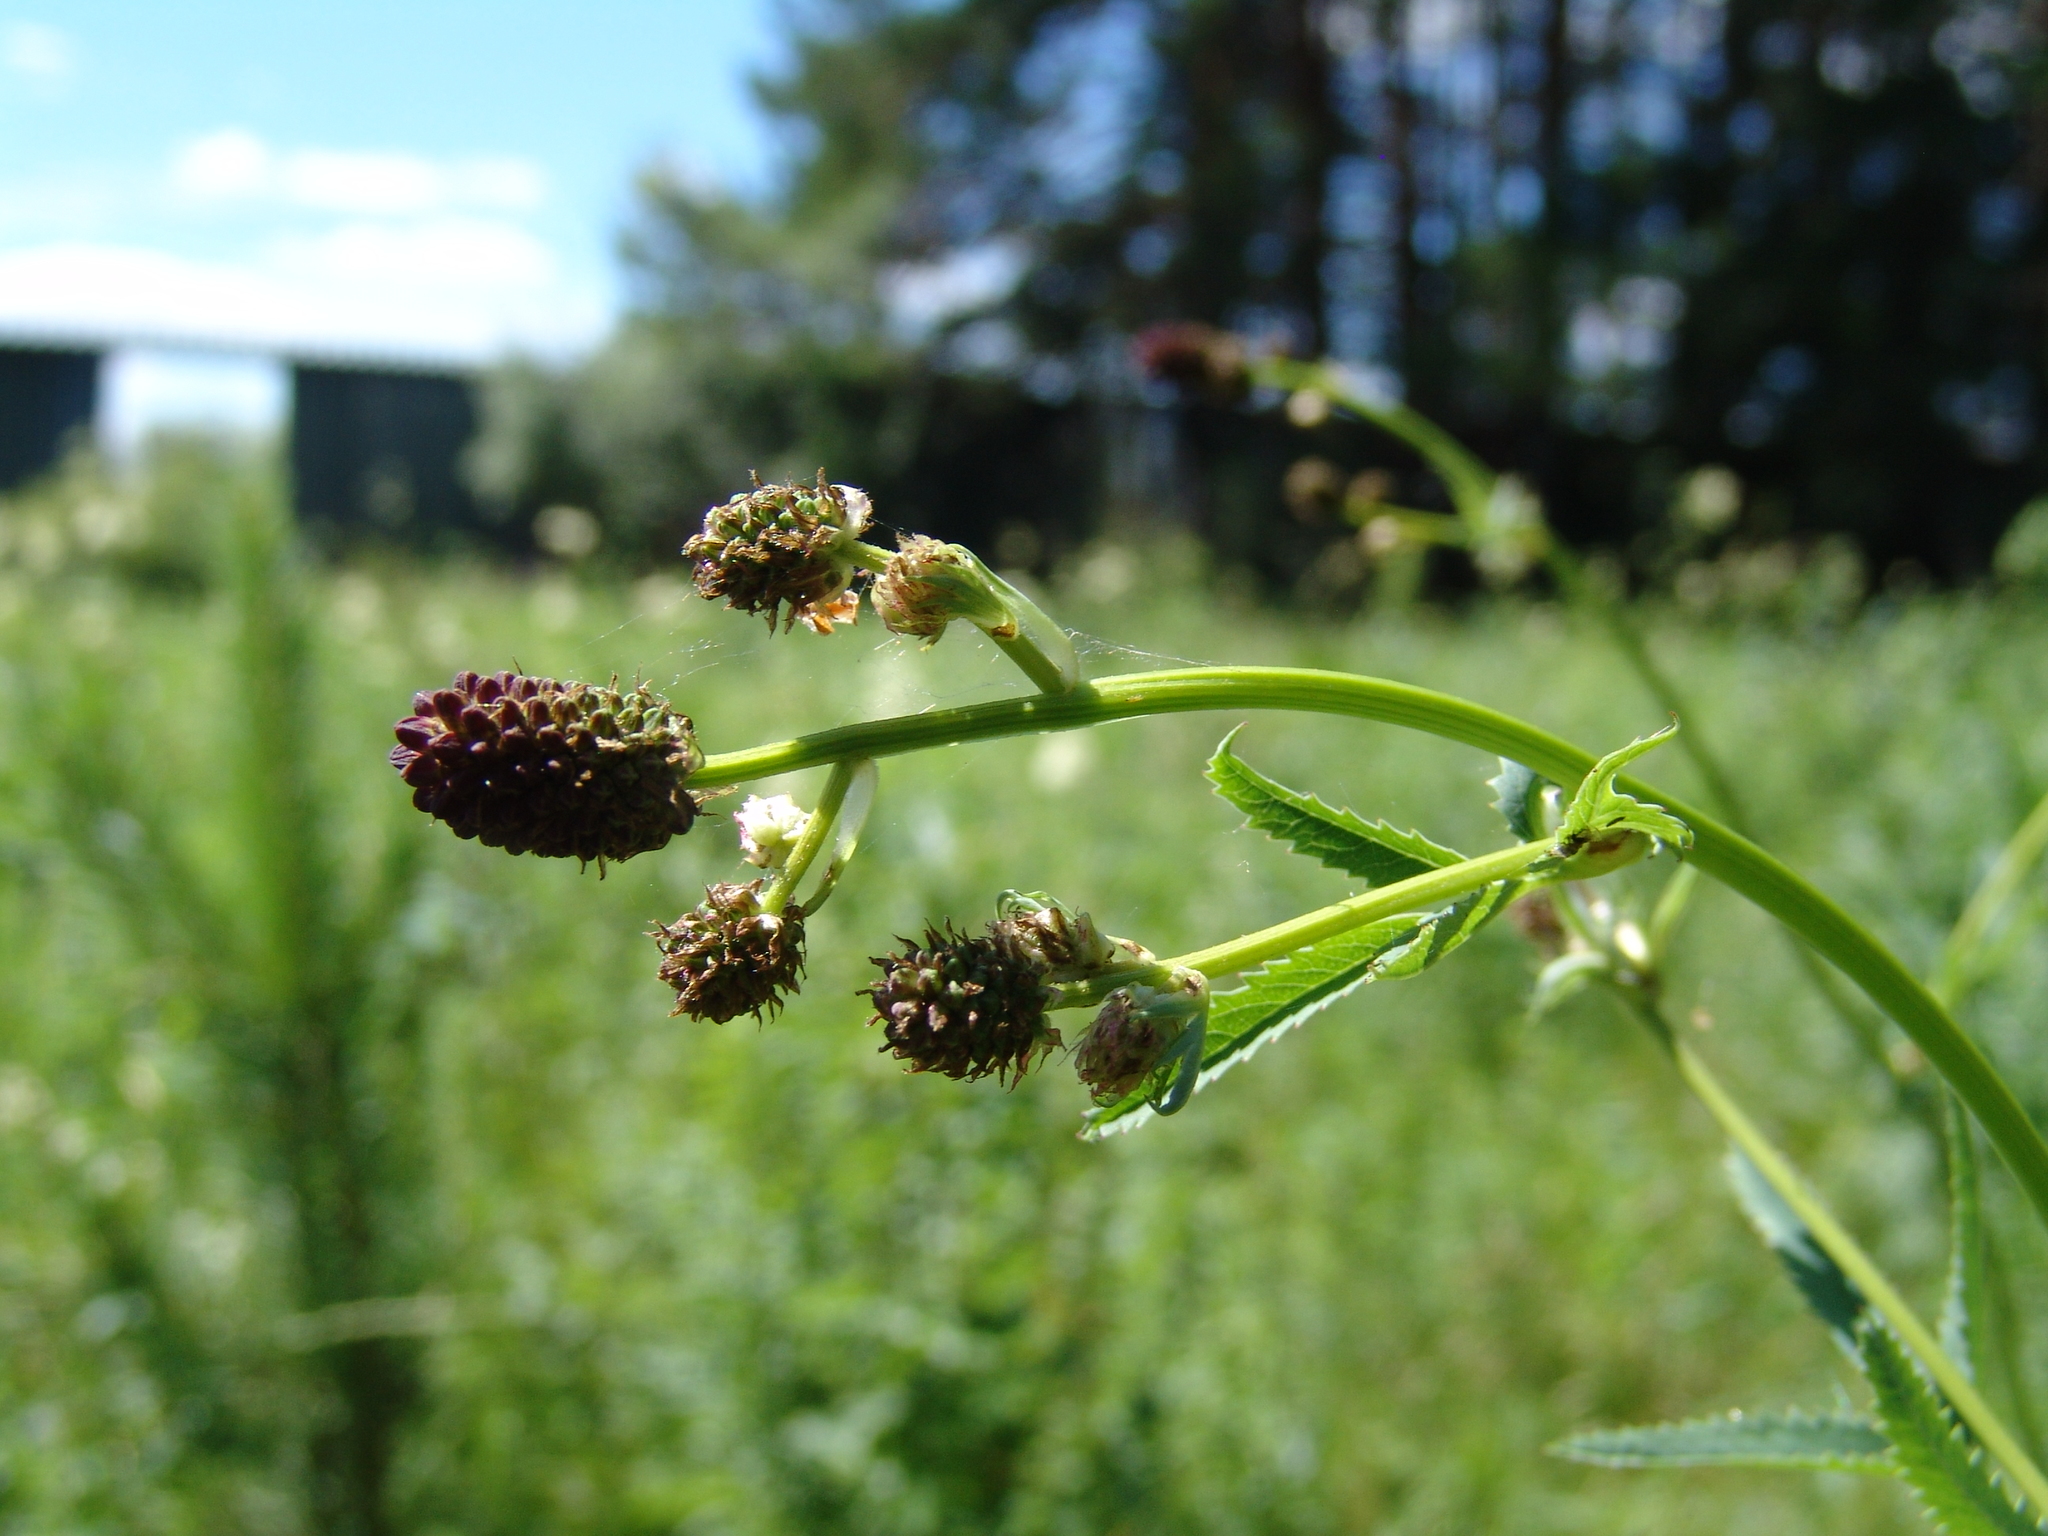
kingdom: Plantae
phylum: Tracheophyta
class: Magnoliopsida
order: Rosales
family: Rosaceae
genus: Sanguisorba
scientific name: Sanguisorba officinalis
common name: Great burnet
